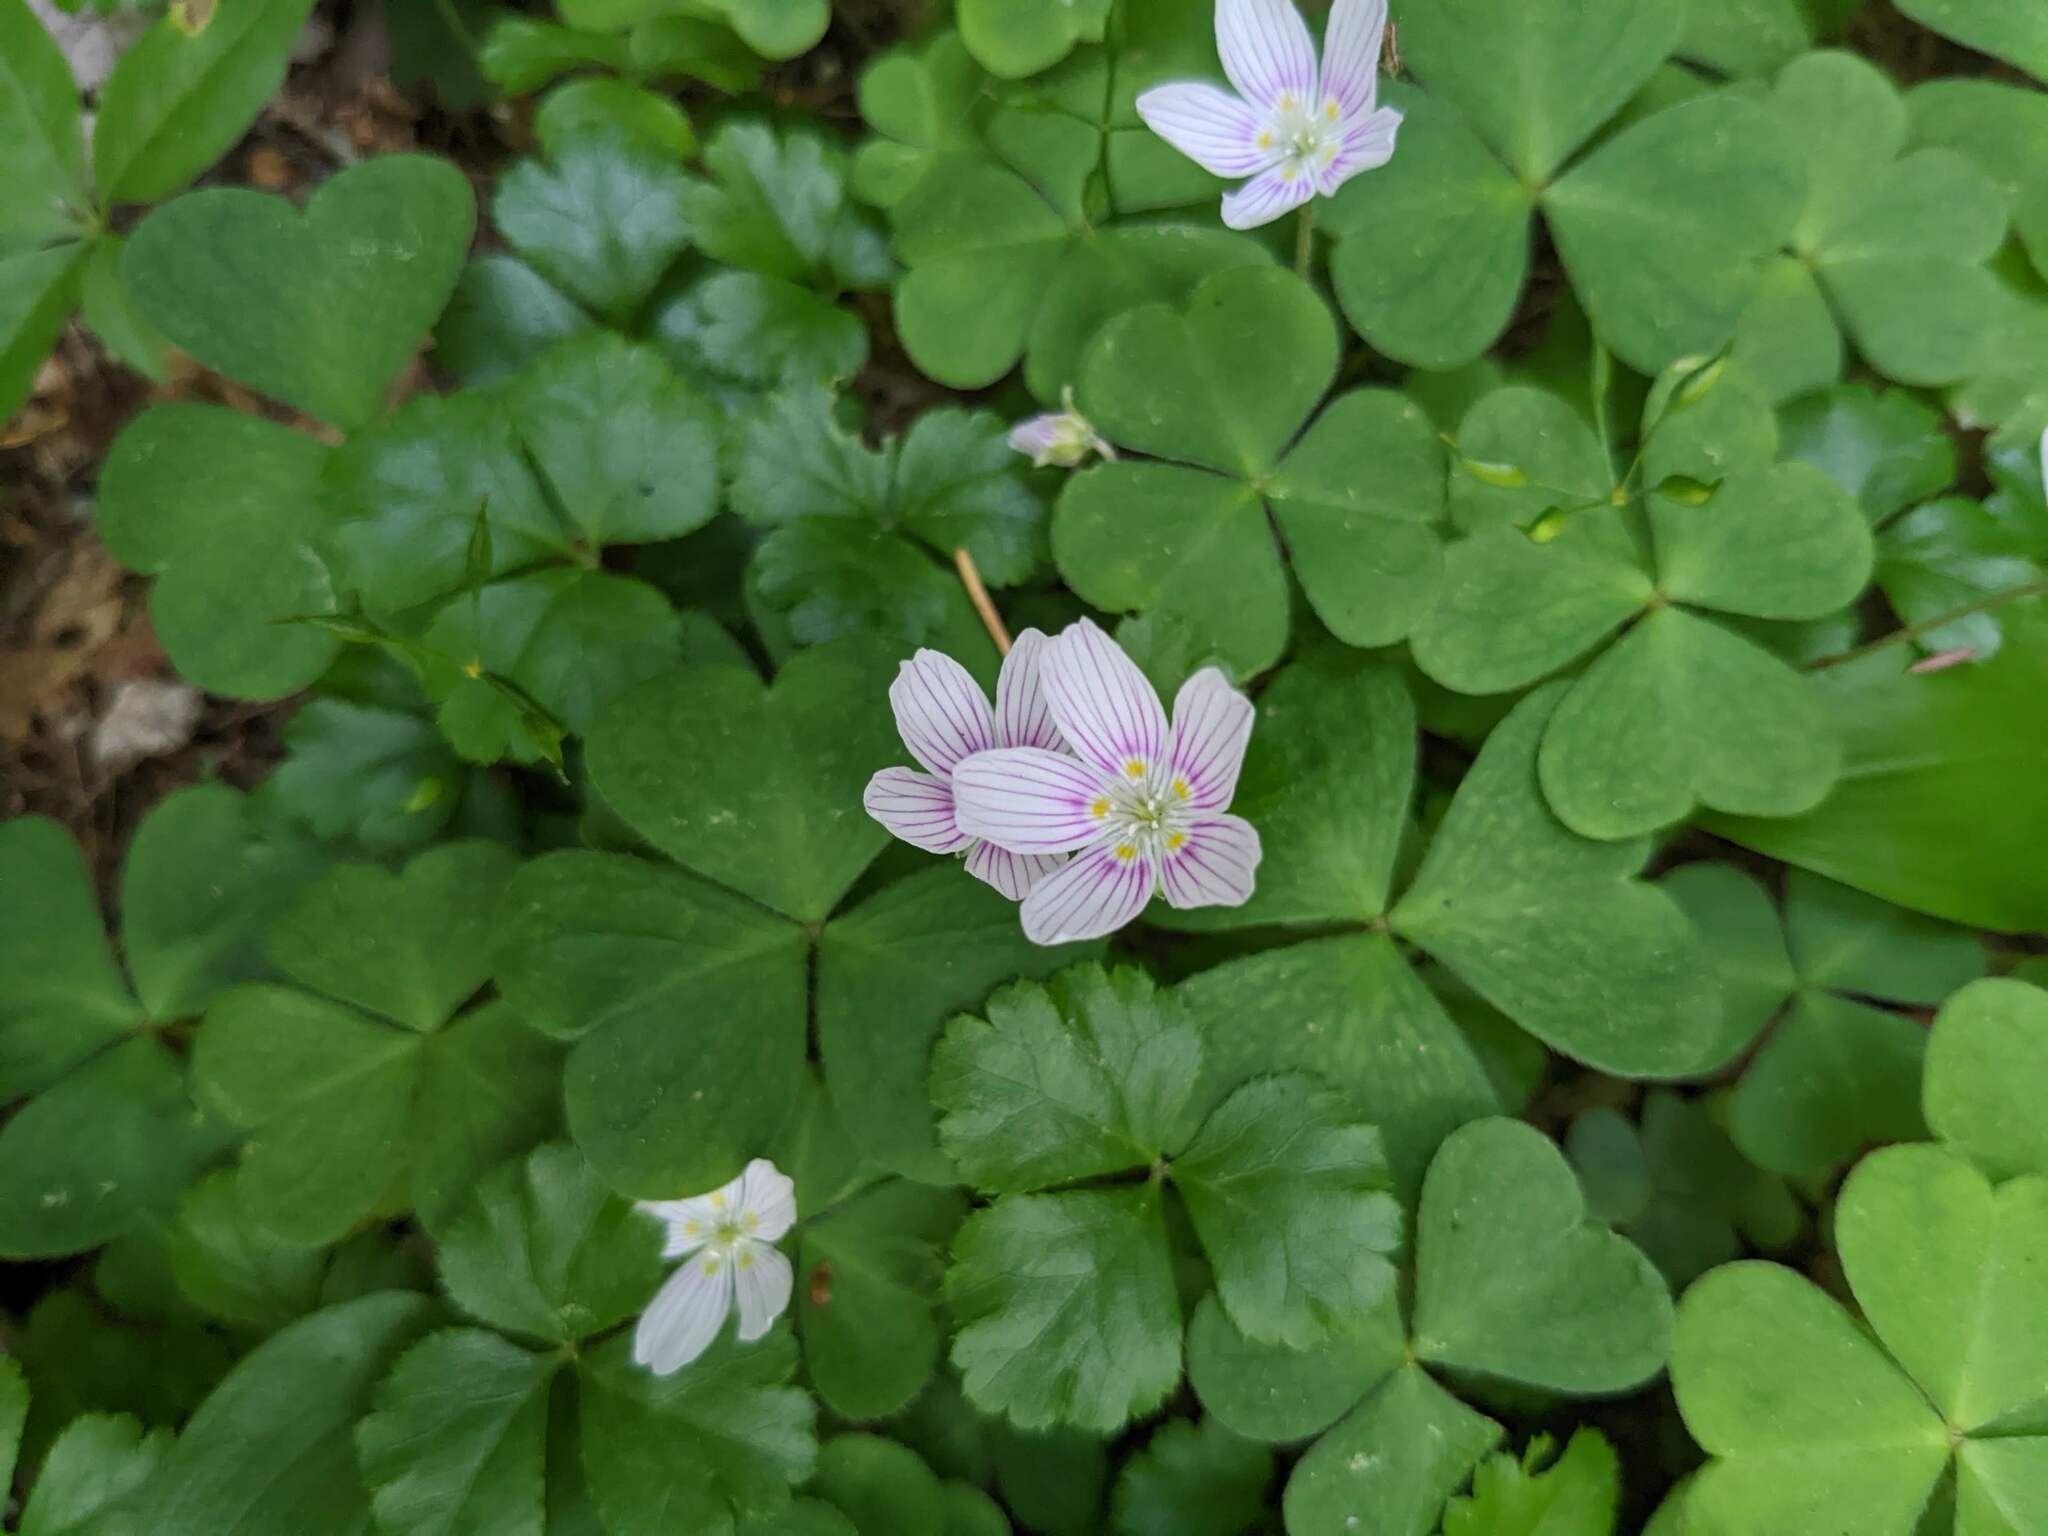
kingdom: Plantae
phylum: Tracheophyta
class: Magnoliopsida
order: Oxalidales
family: Oxalidaceae
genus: Oxalis
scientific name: Oxalis montana
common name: American wood-sorrel
